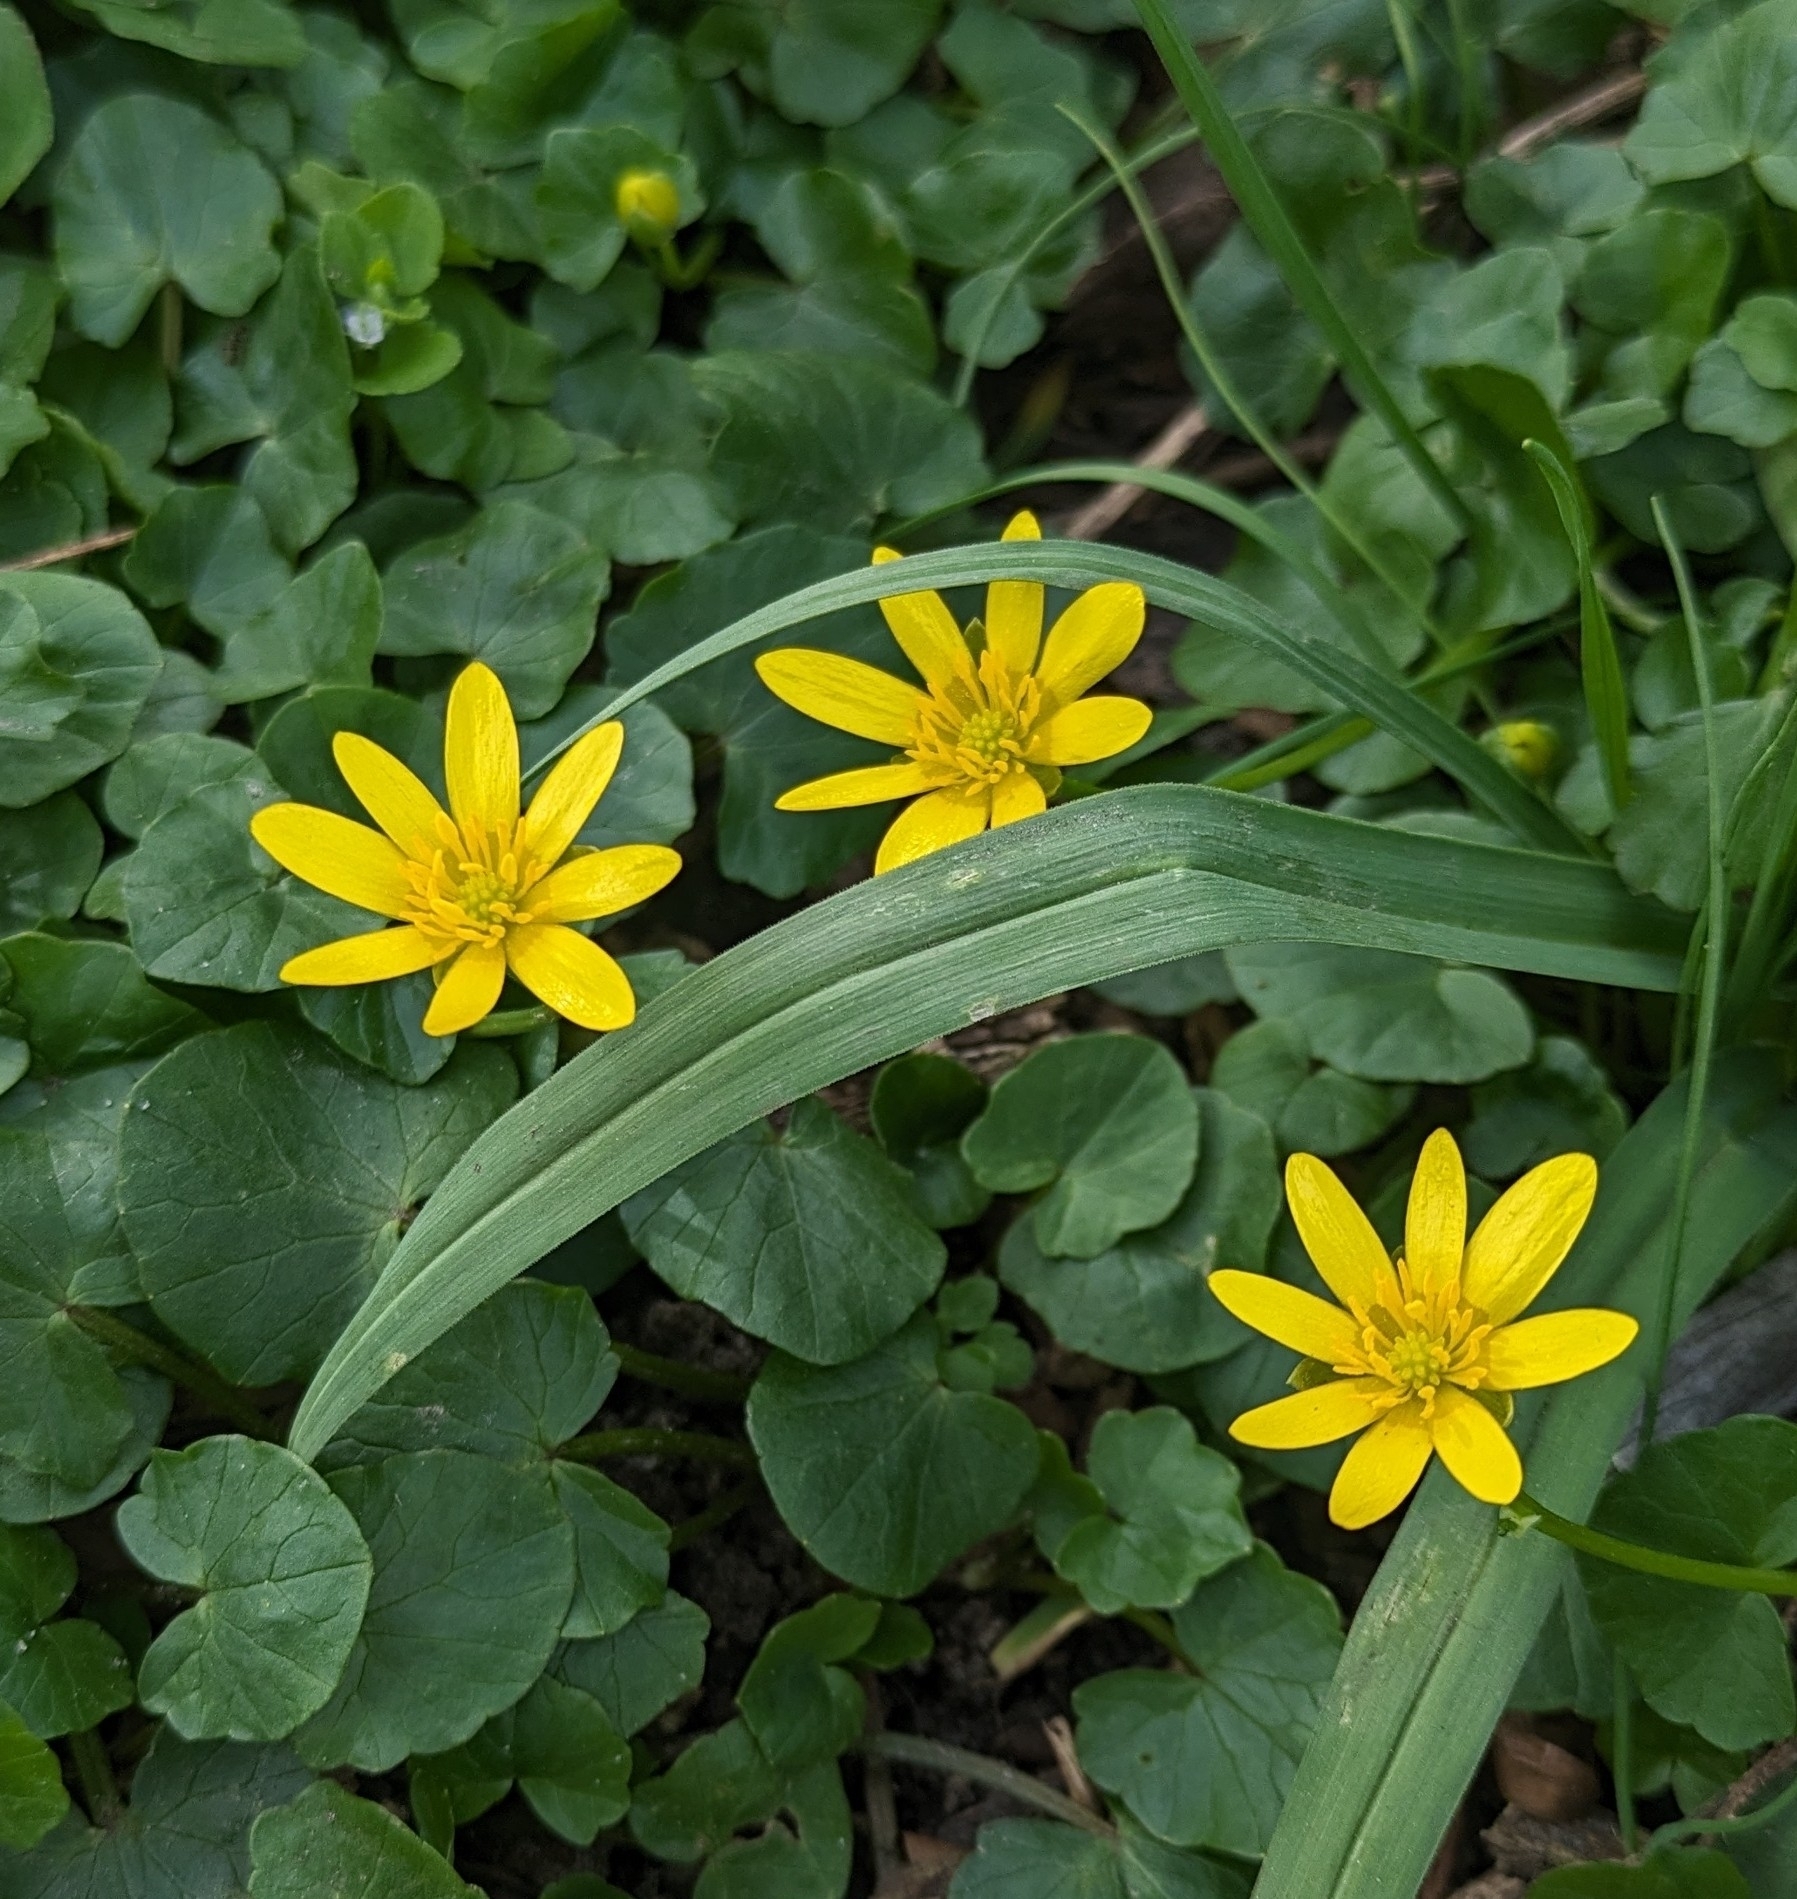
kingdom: Plantae
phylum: Tracheophyta
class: Magnoliopsida
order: Ranunculales
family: Ranunculaceae
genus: Ficaria
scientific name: Ficaria verna
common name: Lesser celandine
